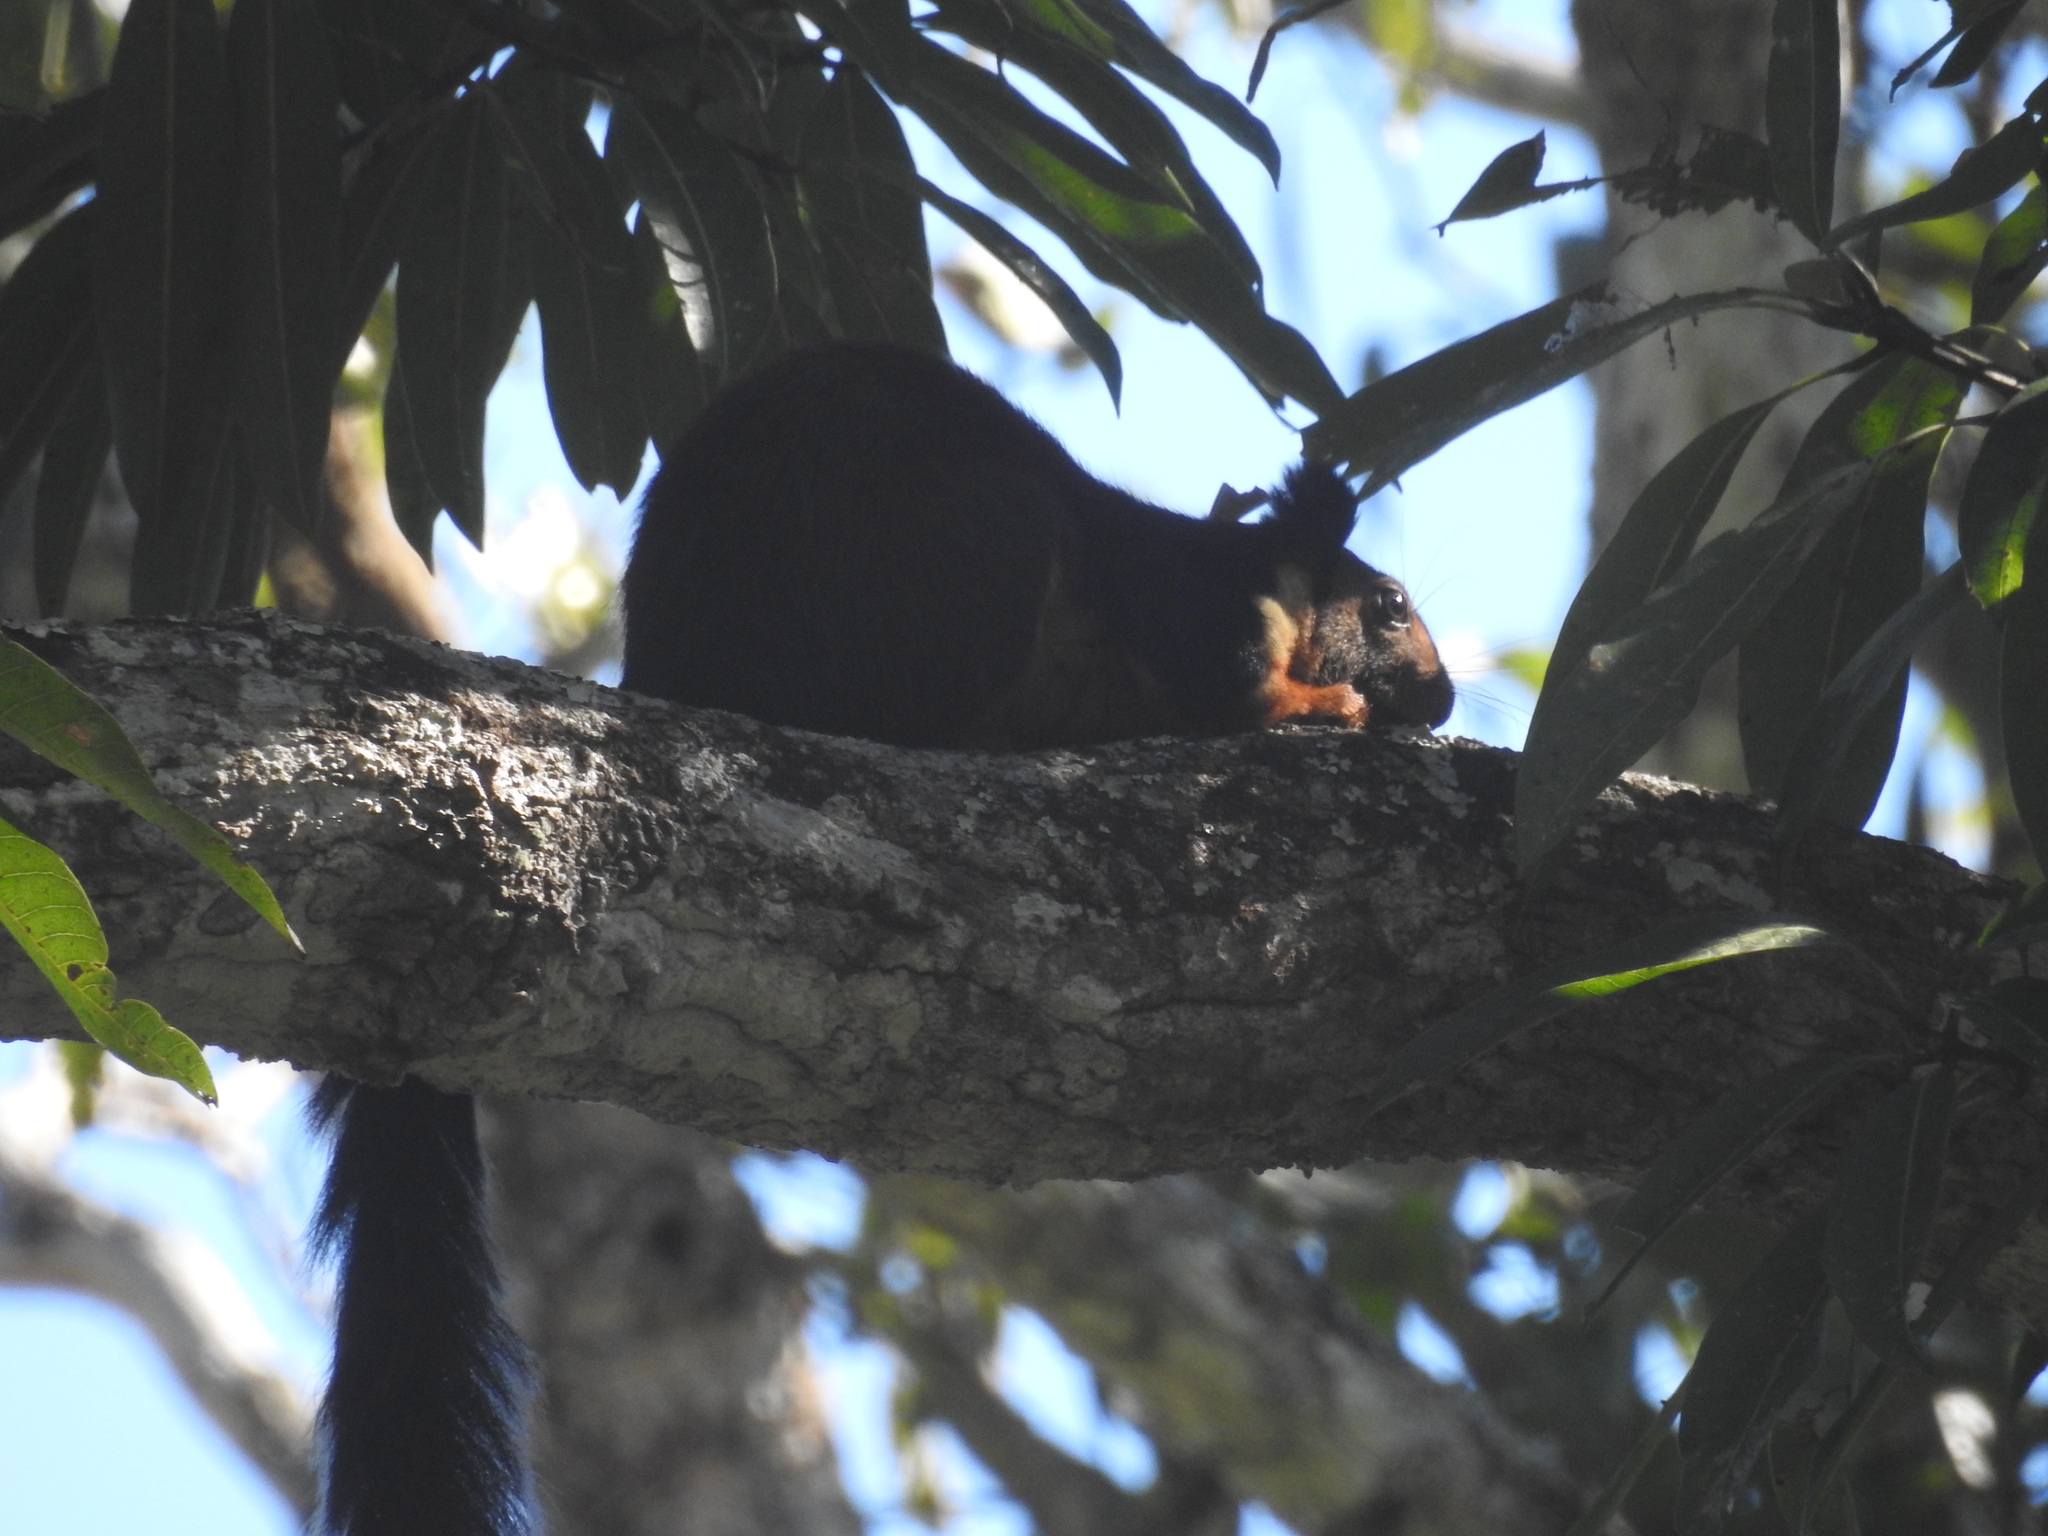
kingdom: Animalia
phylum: Chordata
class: Mammalia
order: Rodentia
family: Sciuridae
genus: Ratufa
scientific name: Ratufa indica
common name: Indian giant squirrel
